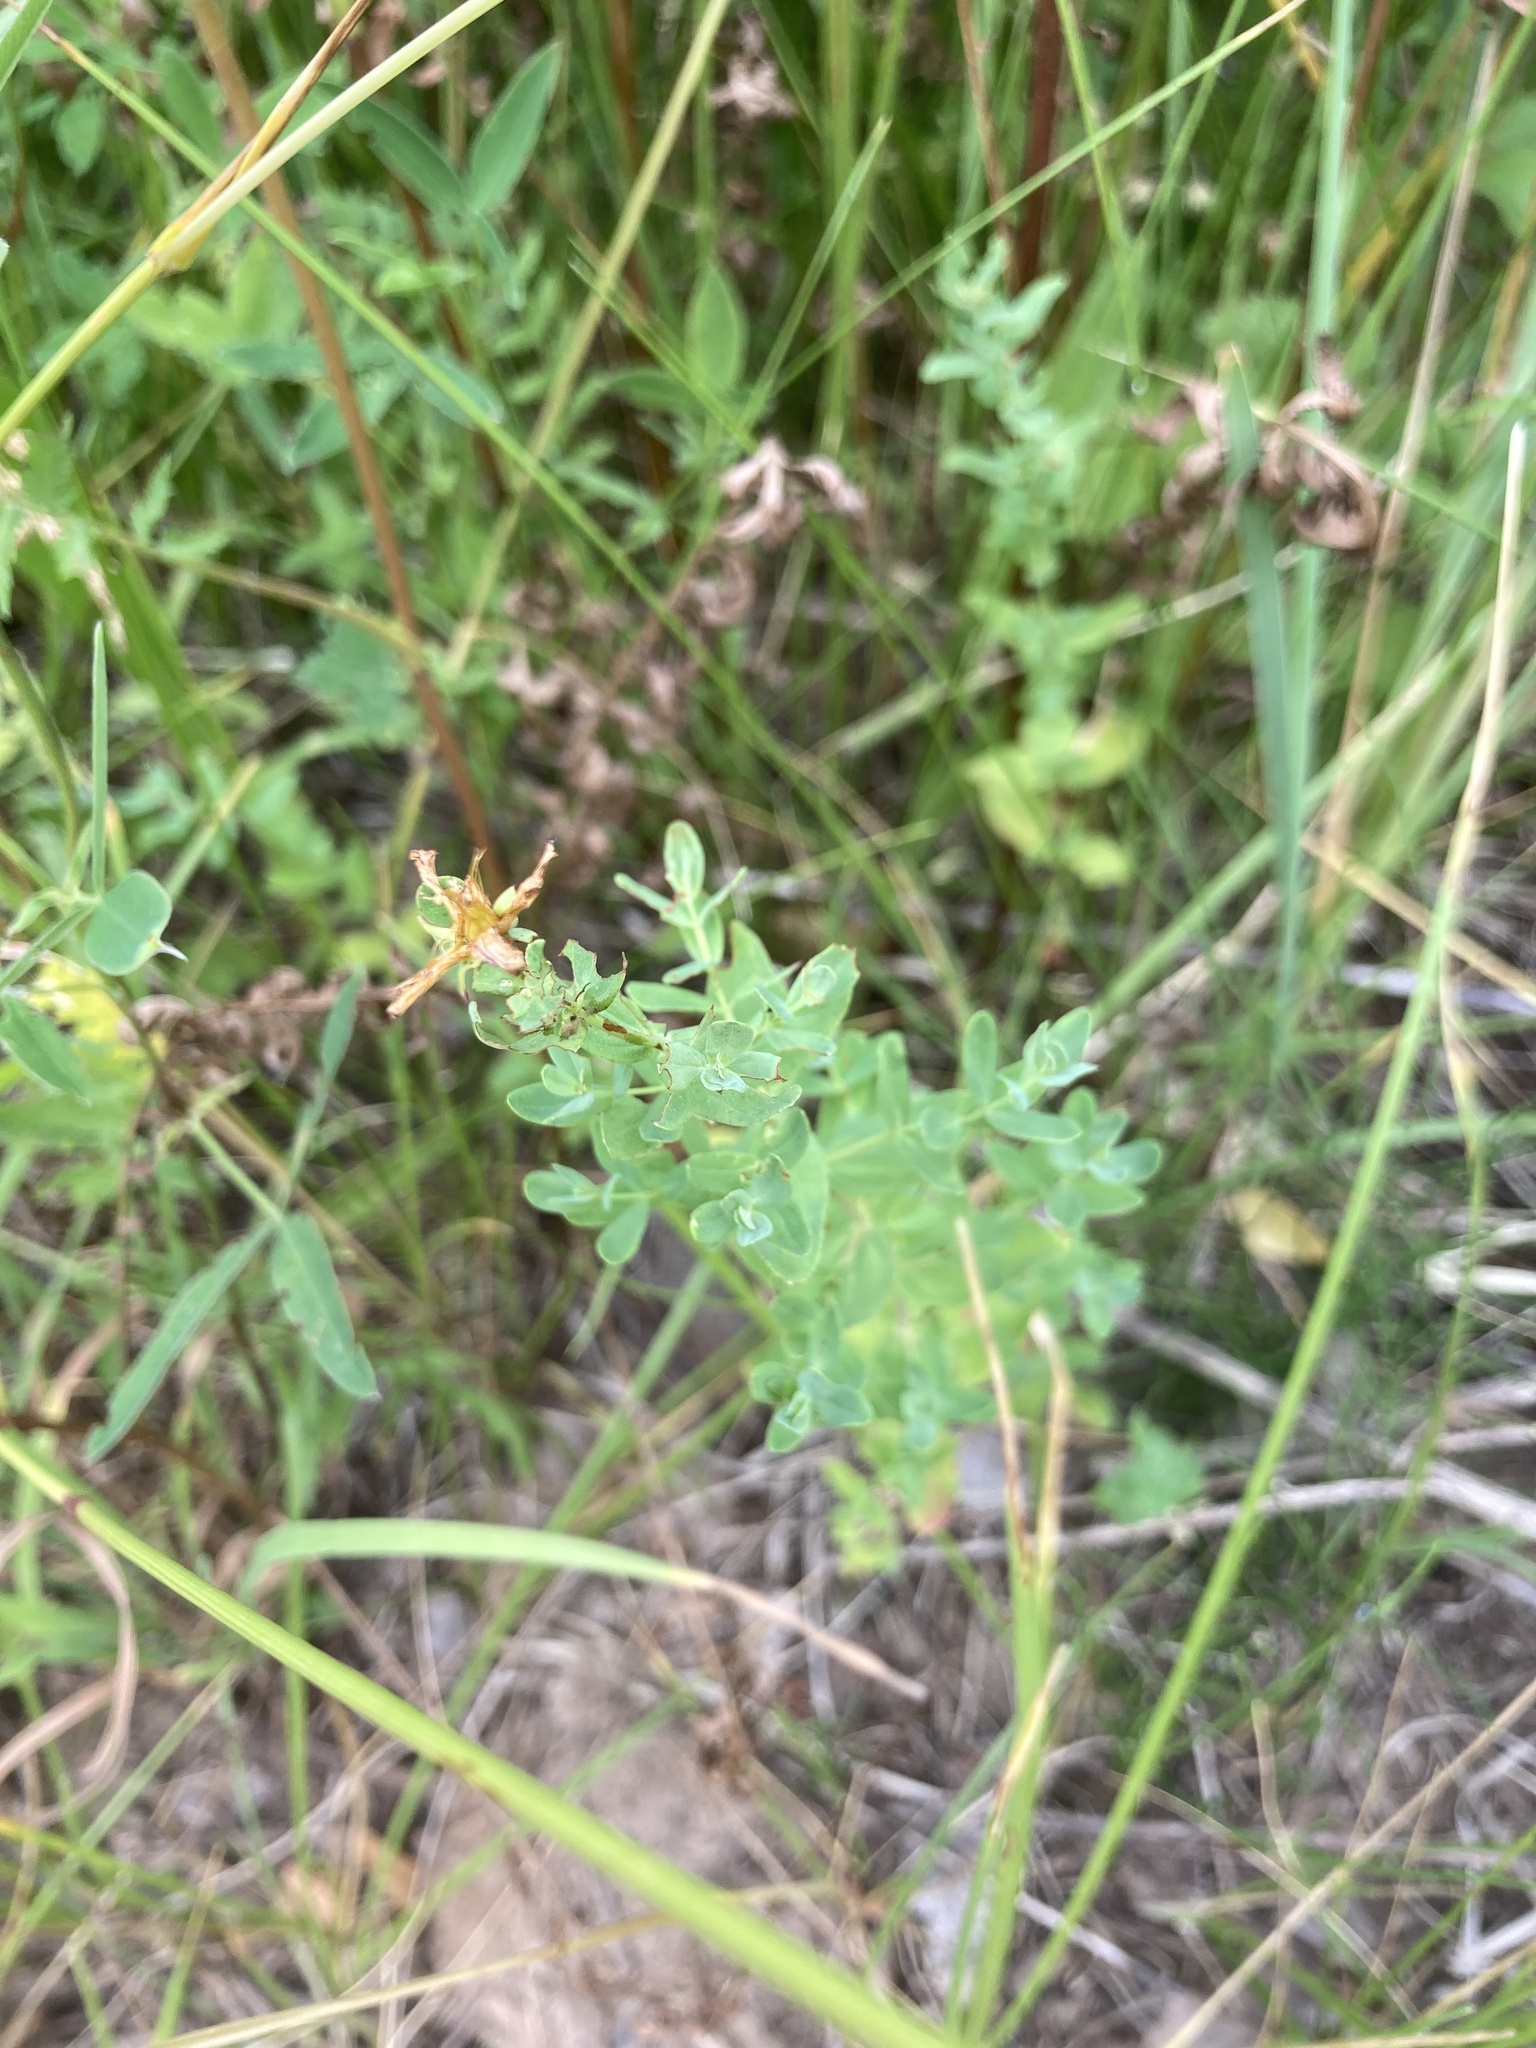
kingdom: Plantae
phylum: Tracheophyta
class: Magnoliopsida
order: Malpighiales
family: Hypericaceae
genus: Hypericum
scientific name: Hypericum perforatum
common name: Common st. johnswort
